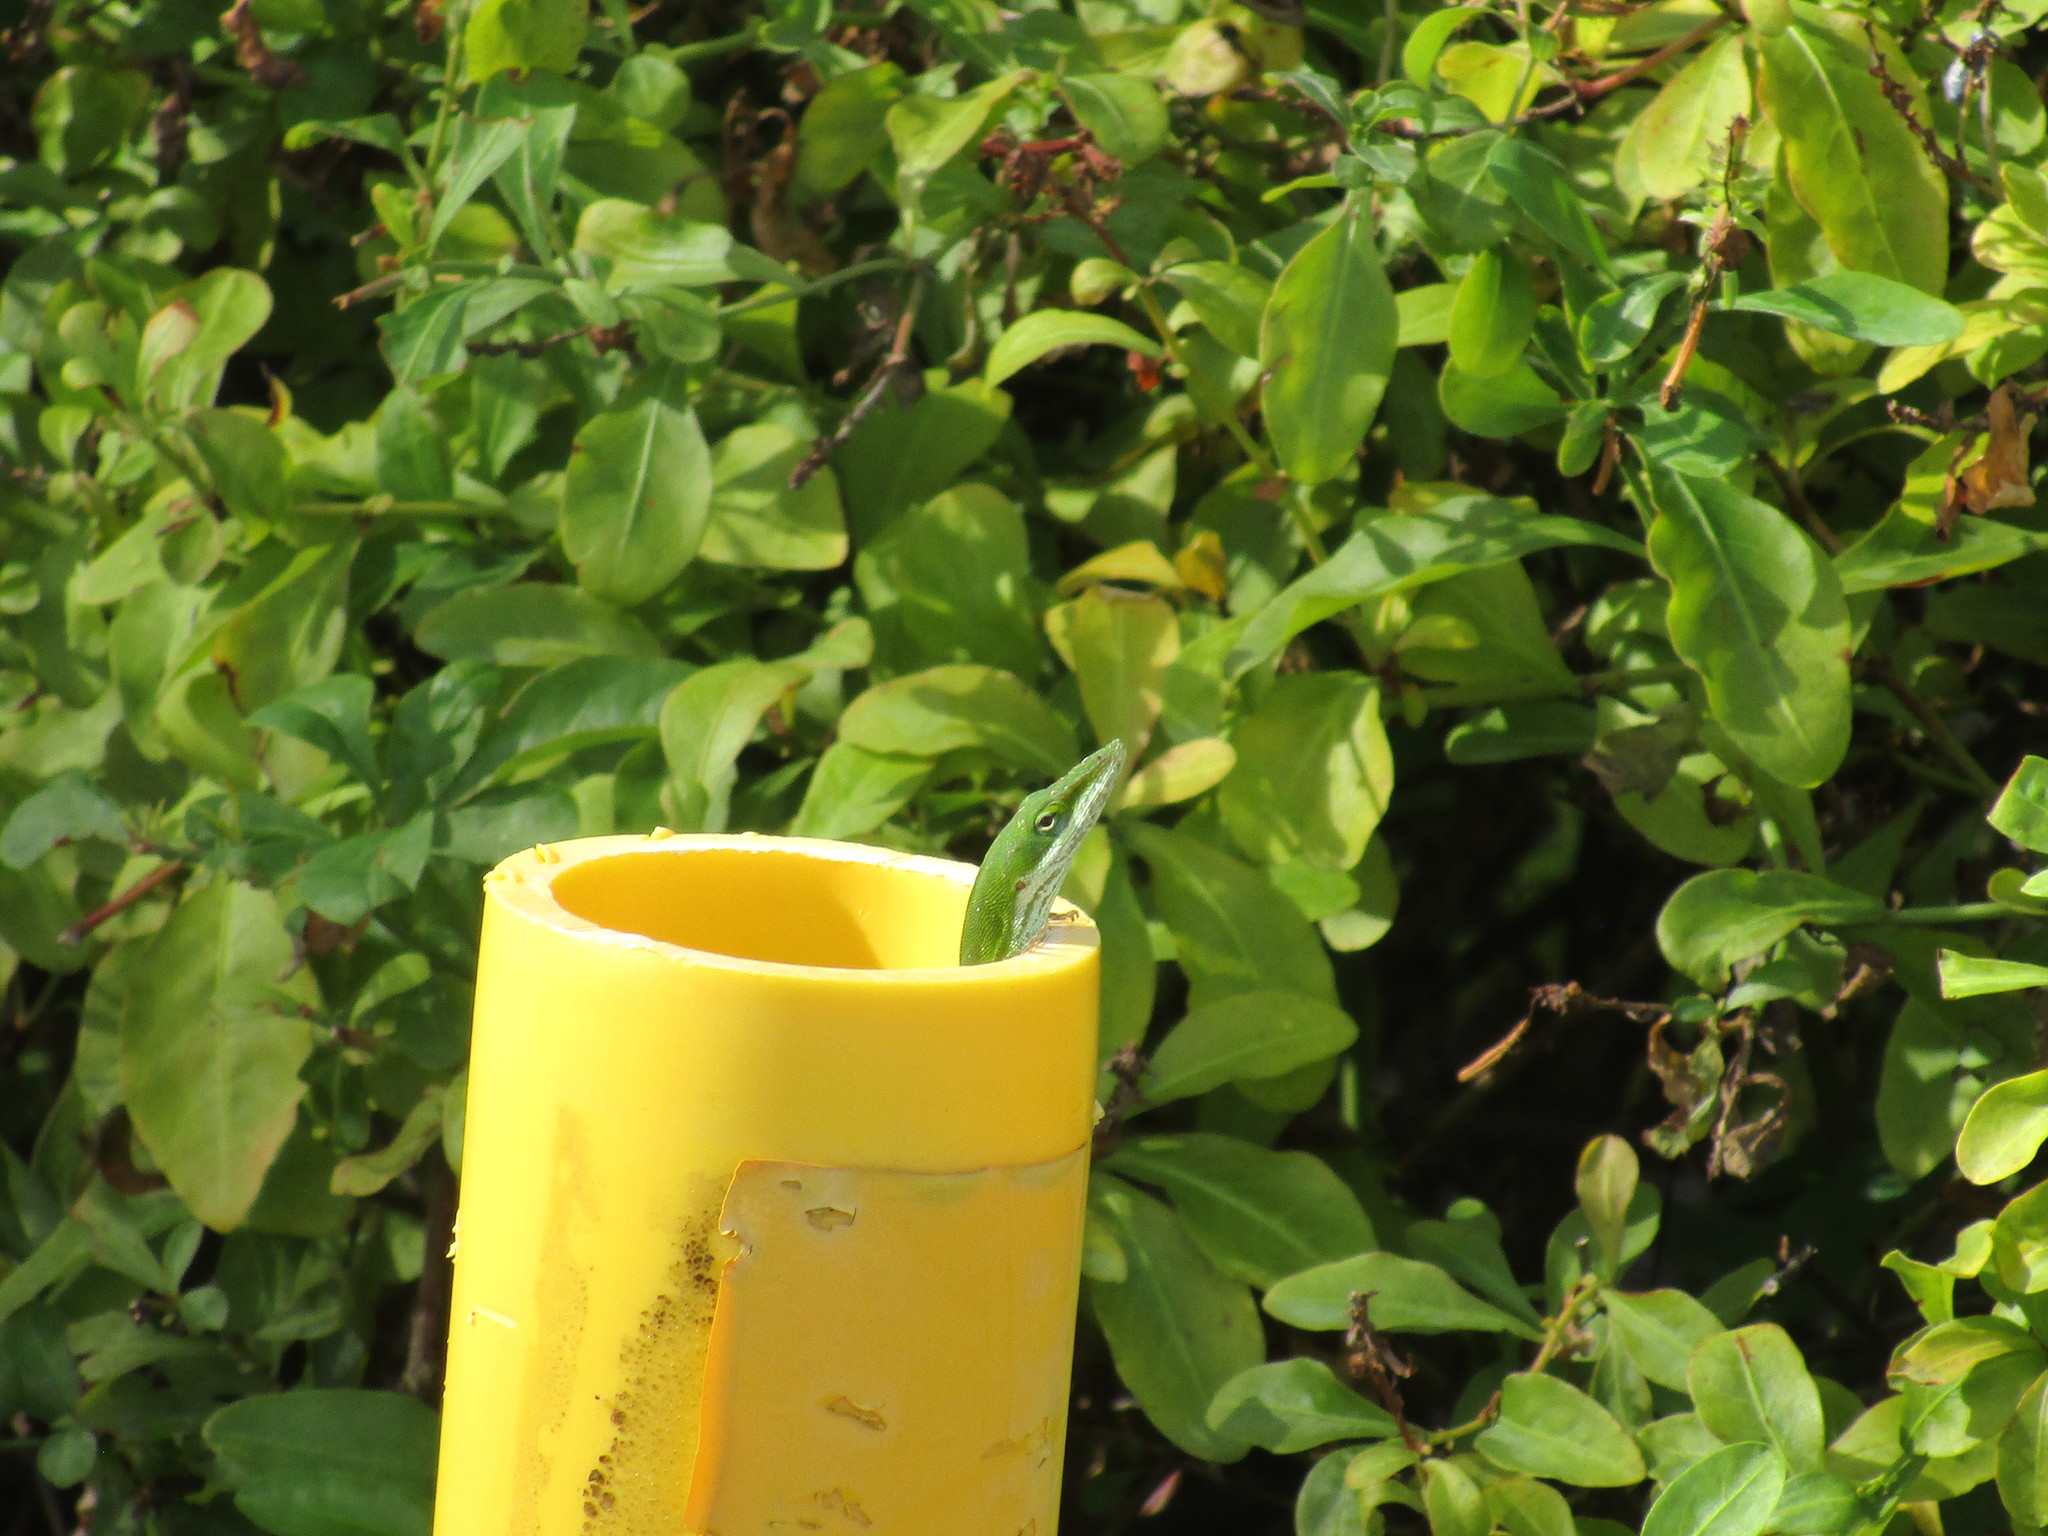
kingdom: Animalia
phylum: Chordata
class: Squamata
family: Dactyloidae
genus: Anolis
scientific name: Anolis carolinensis
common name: Green anole
